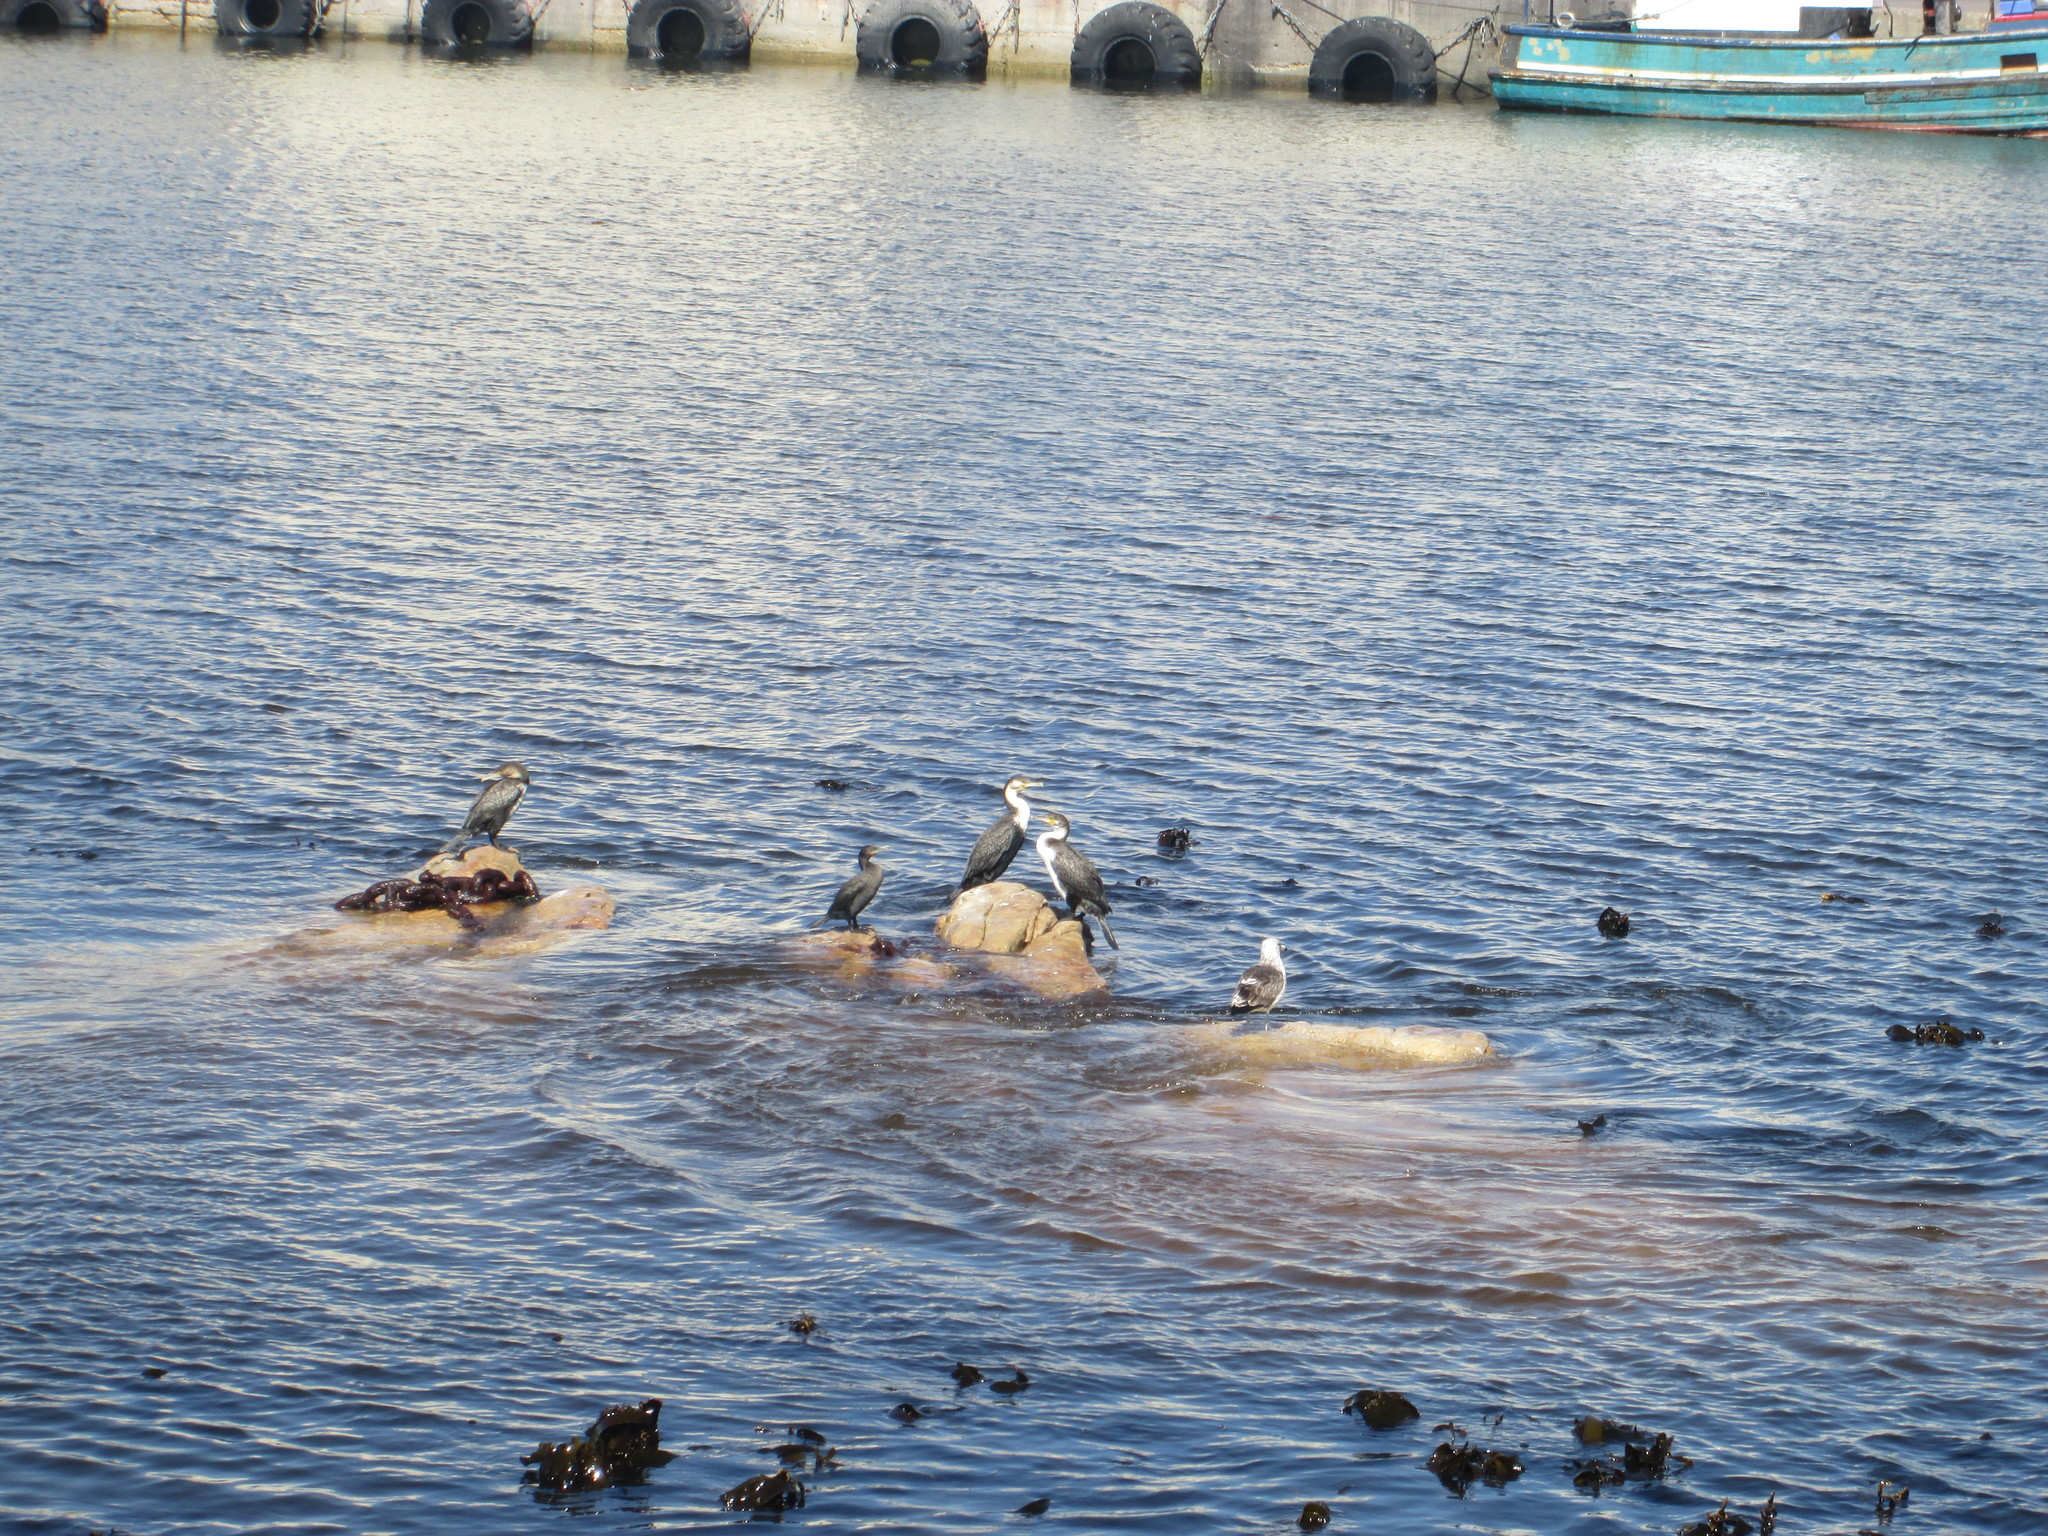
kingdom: Animalia
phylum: Chordata
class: Aves
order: Suliformes
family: Phalacrocoracidae
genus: Phalacrocorax
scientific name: Phalacrocorax carbo
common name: Great cormorant
